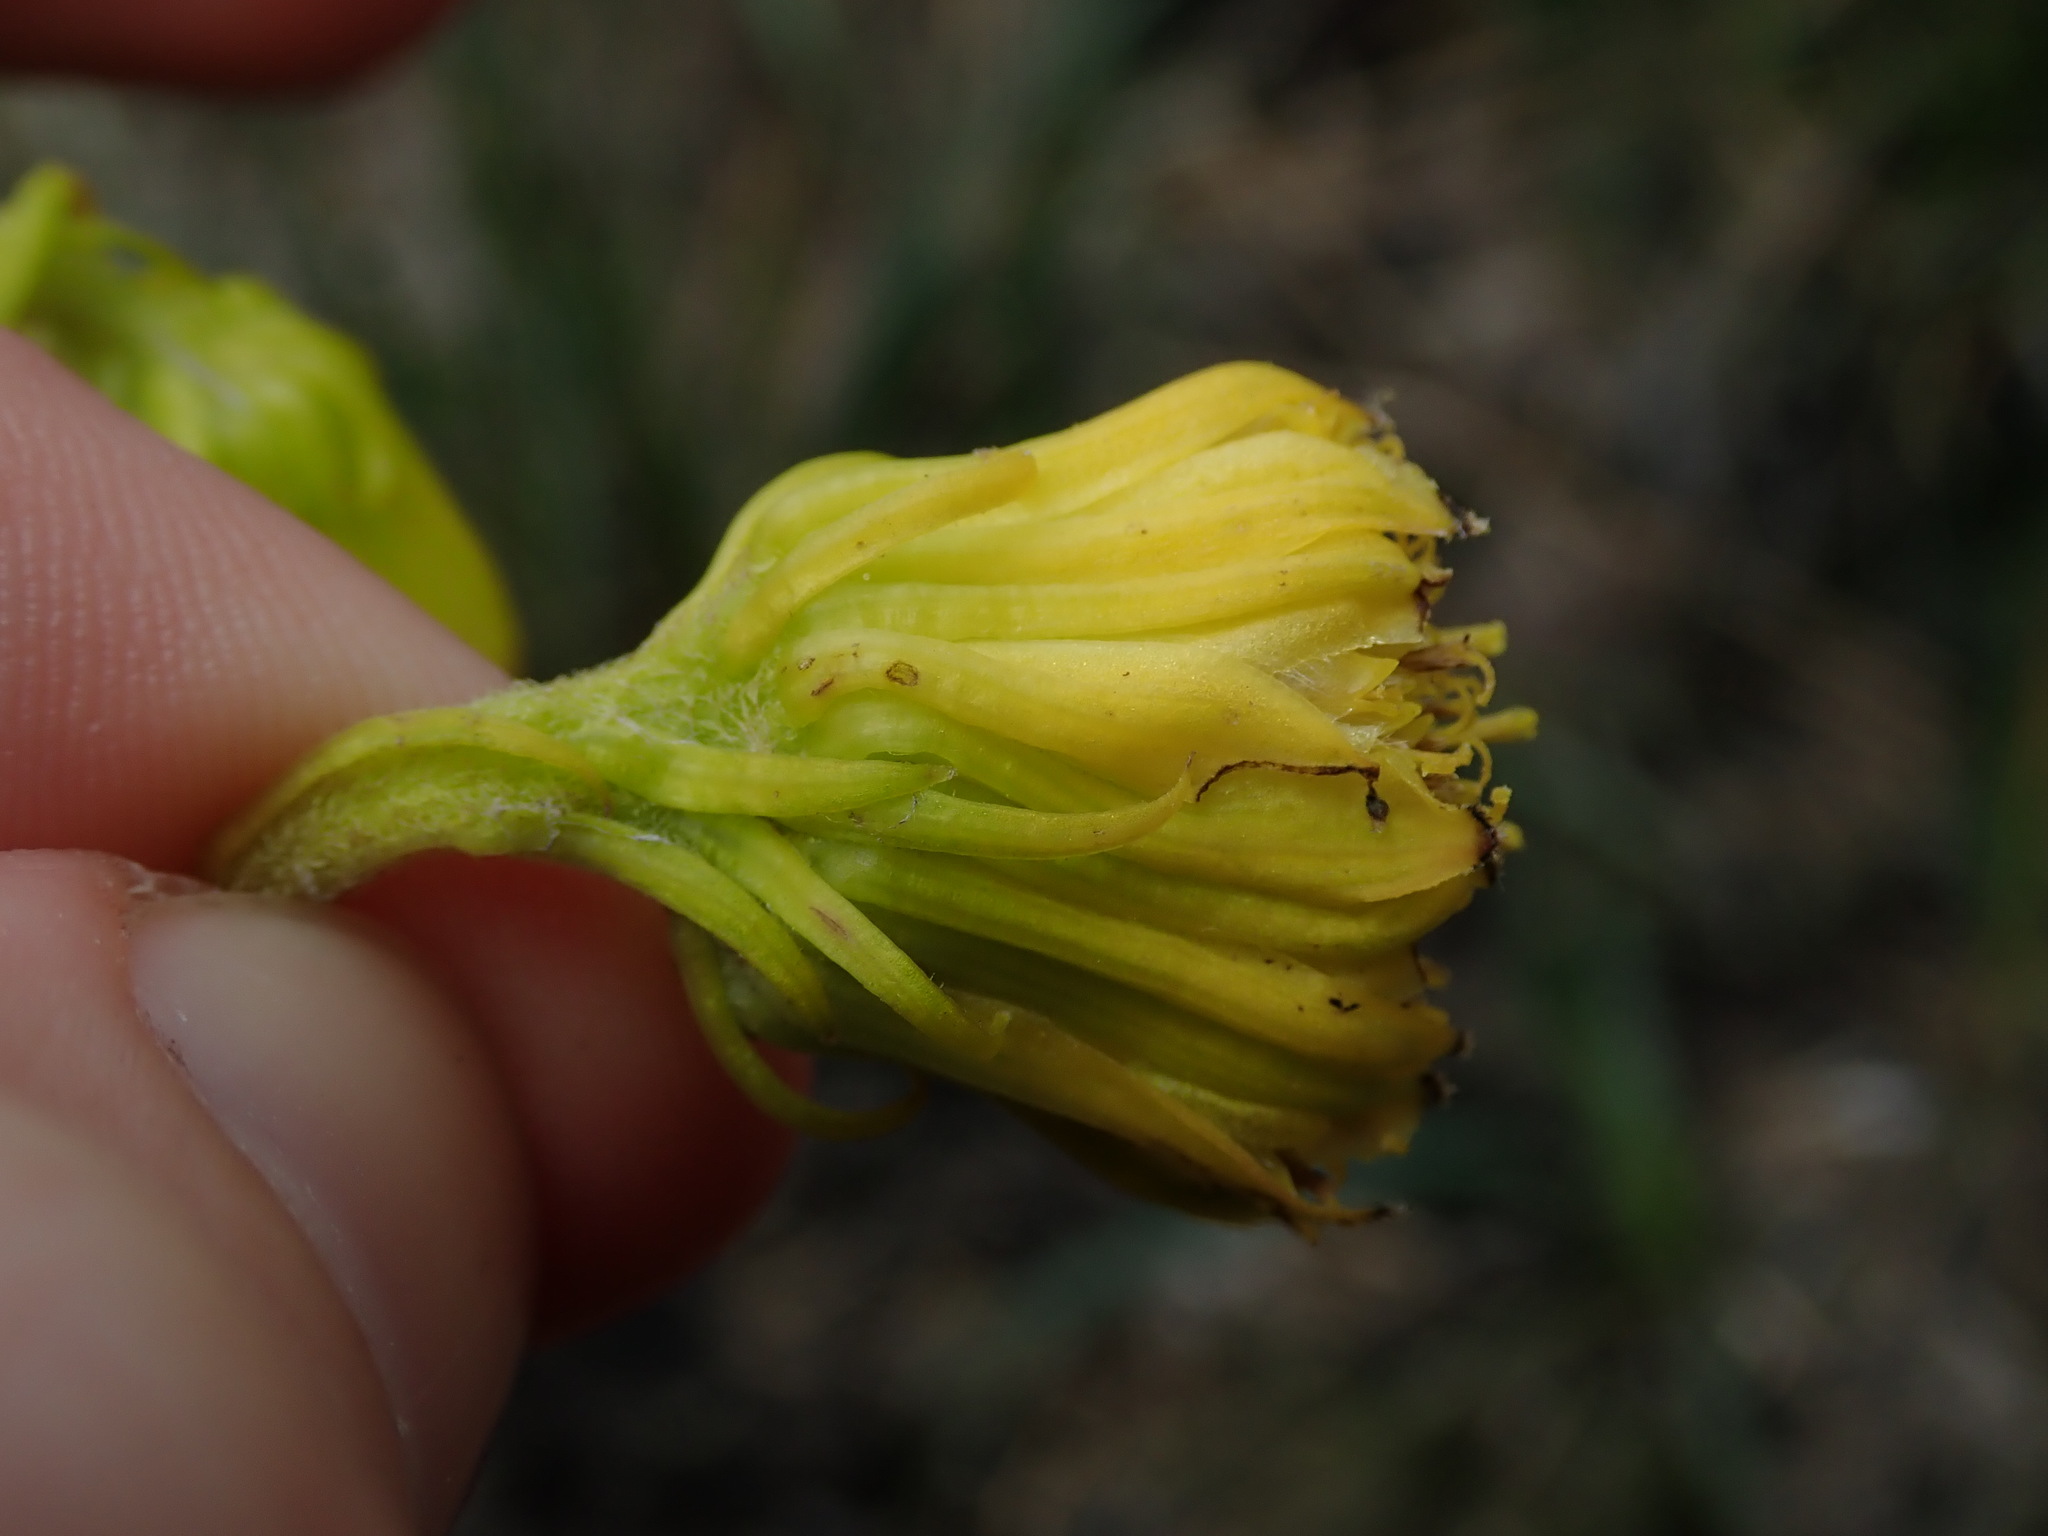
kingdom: Plantae
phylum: Tracheophyta
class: Magnoliopsida
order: Asterales
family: Asteraceae
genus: Senecio
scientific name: Senecio chionogeton
